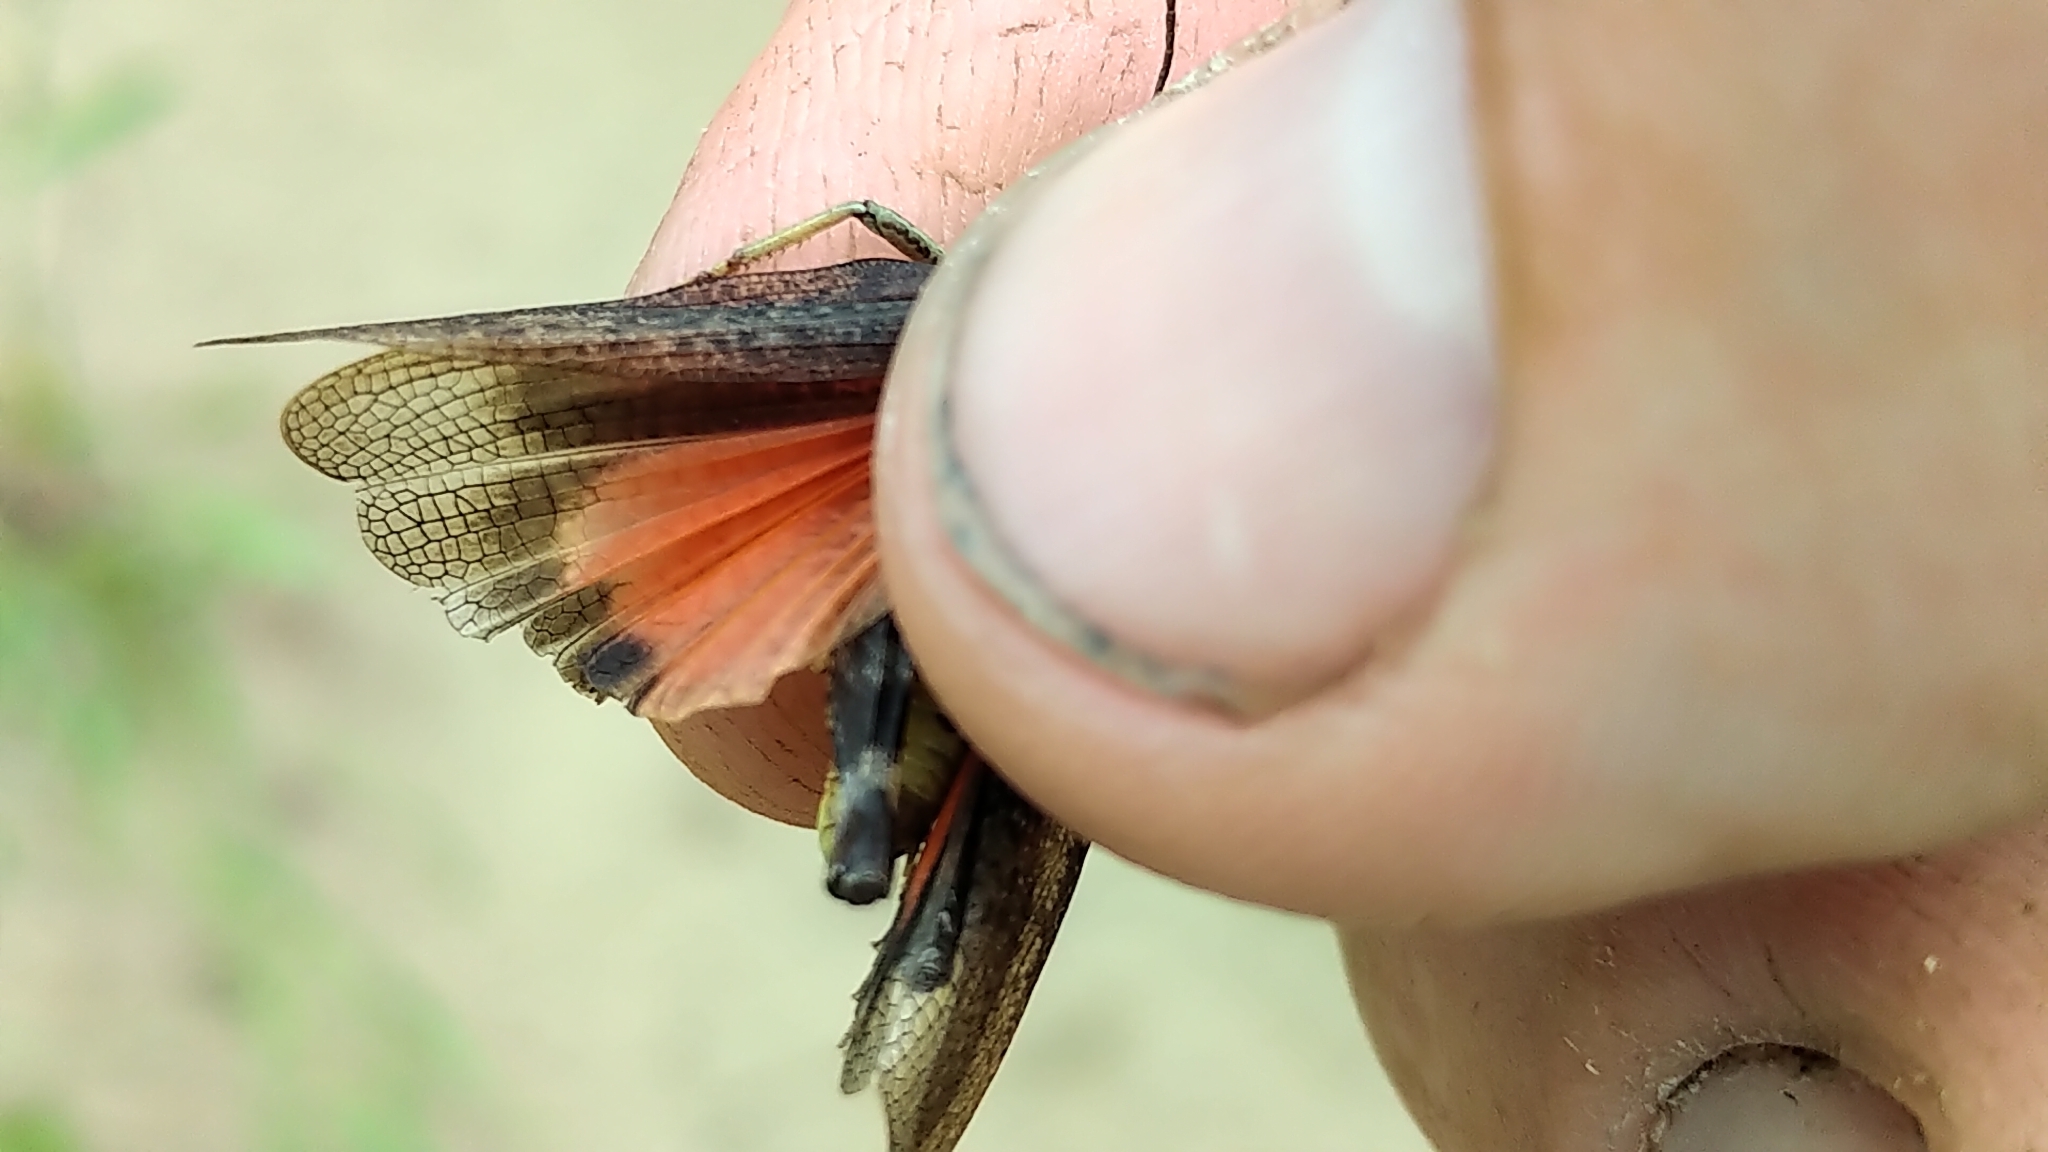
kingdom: Animalia
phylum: Arthropoda
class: Insecta
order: Orthoptera
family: Acrididae
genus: Arphia
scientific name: Arphia conspersa
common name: Speckle-winged rangeland grasshopper
